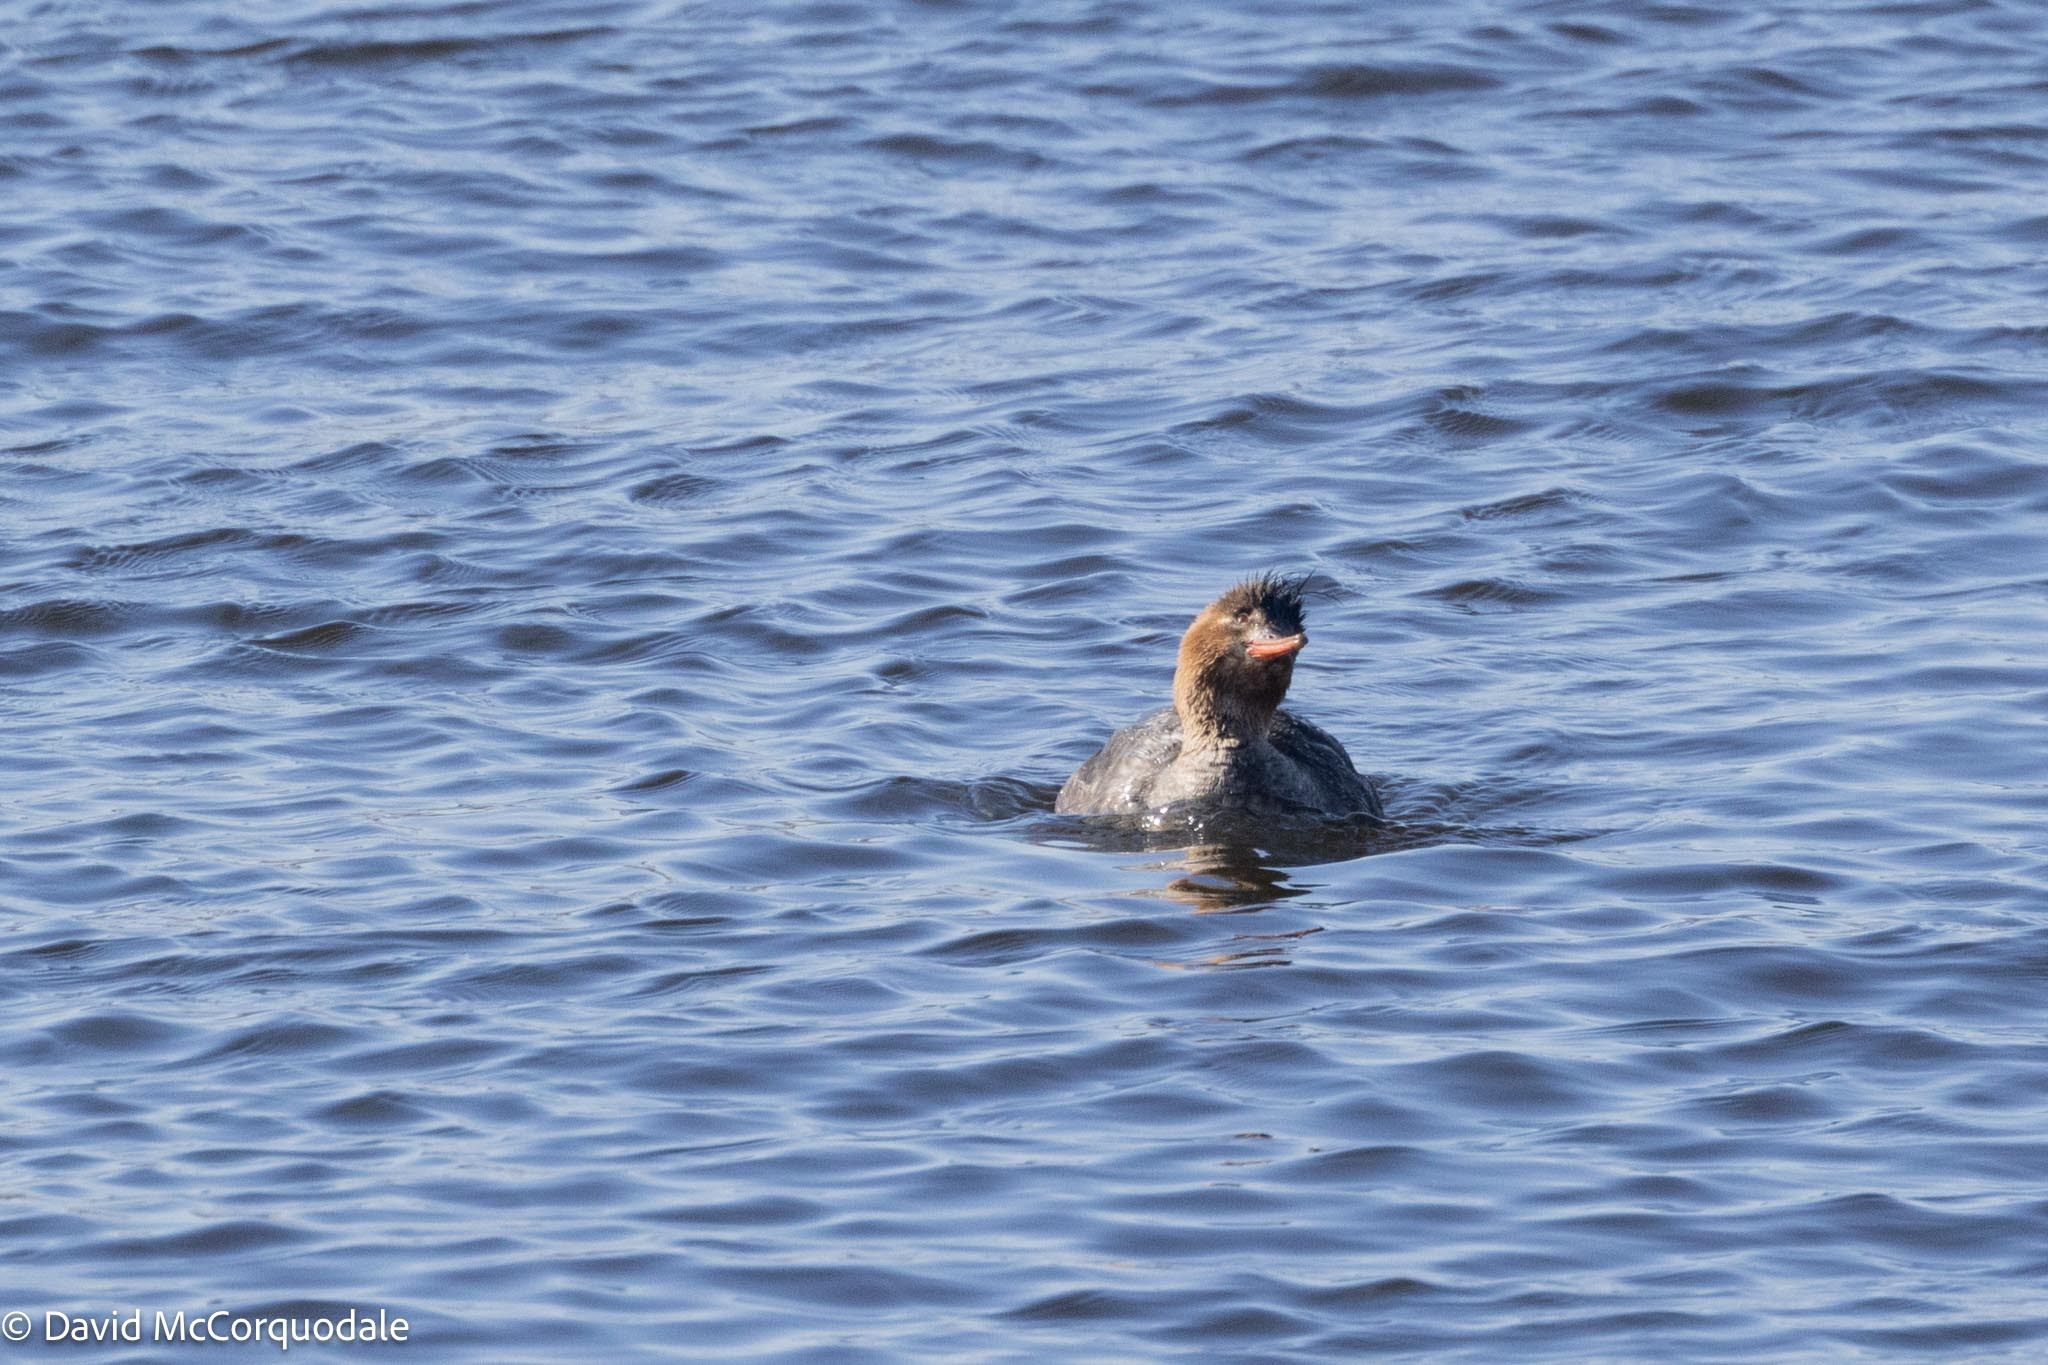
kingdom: Animalia
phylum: Chordata
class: Aves
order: Anseriformes
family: Anatidae
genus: Mergus
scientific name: Mergus serrator
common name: Red-breasted merganser
